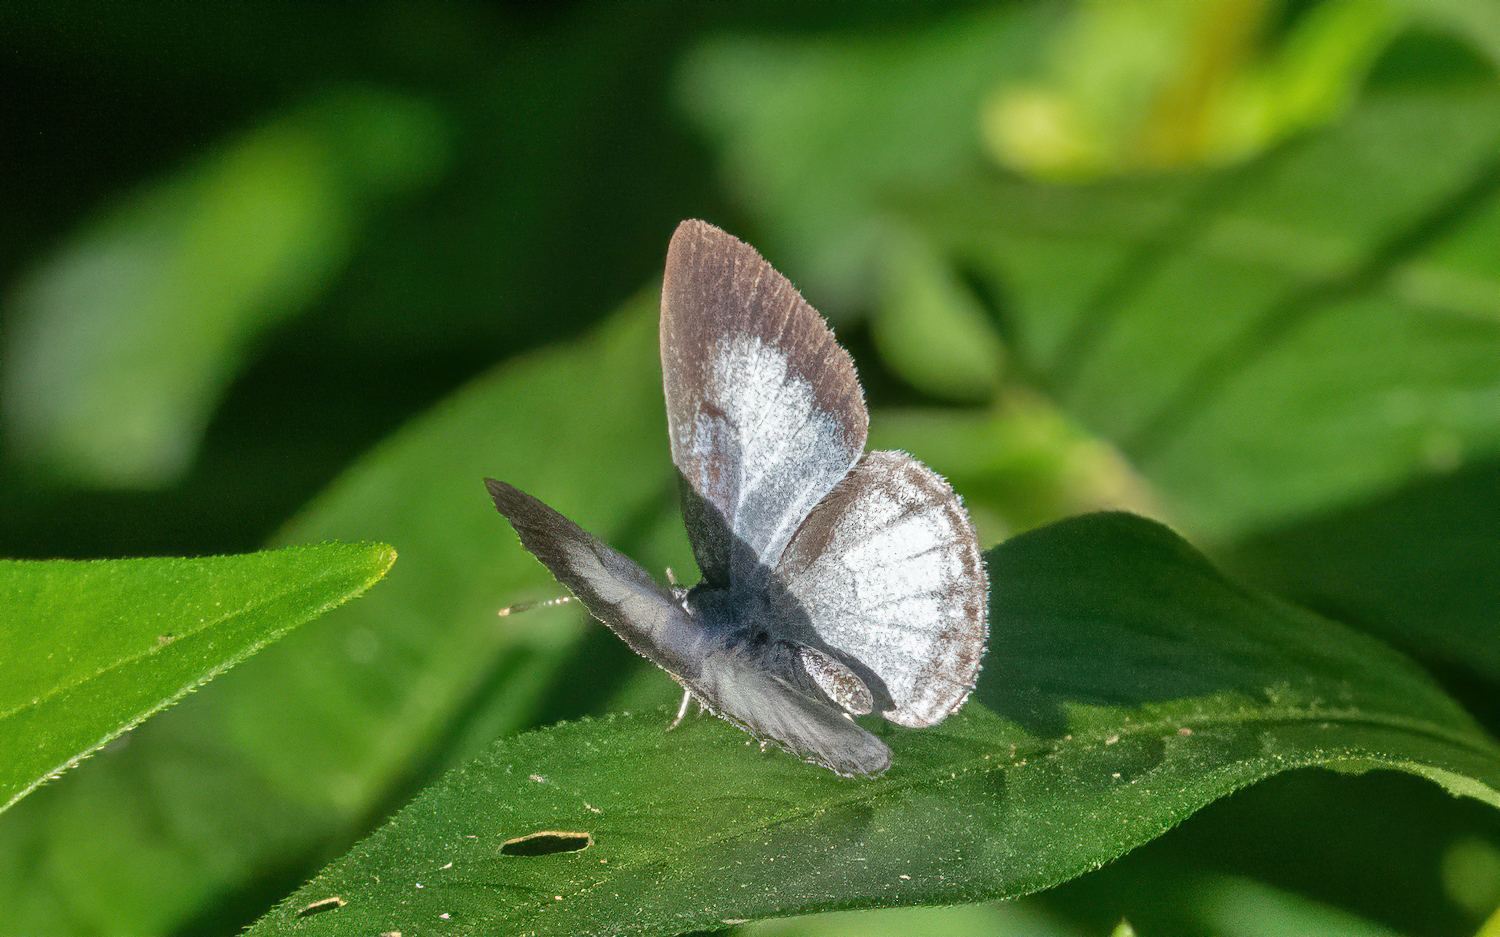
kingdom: Animalia
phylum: Arthropoda
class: Insecta
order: Lepidoptera
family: Lycaenidae
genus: Cyaniris
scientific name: Cyaniris neglecta
